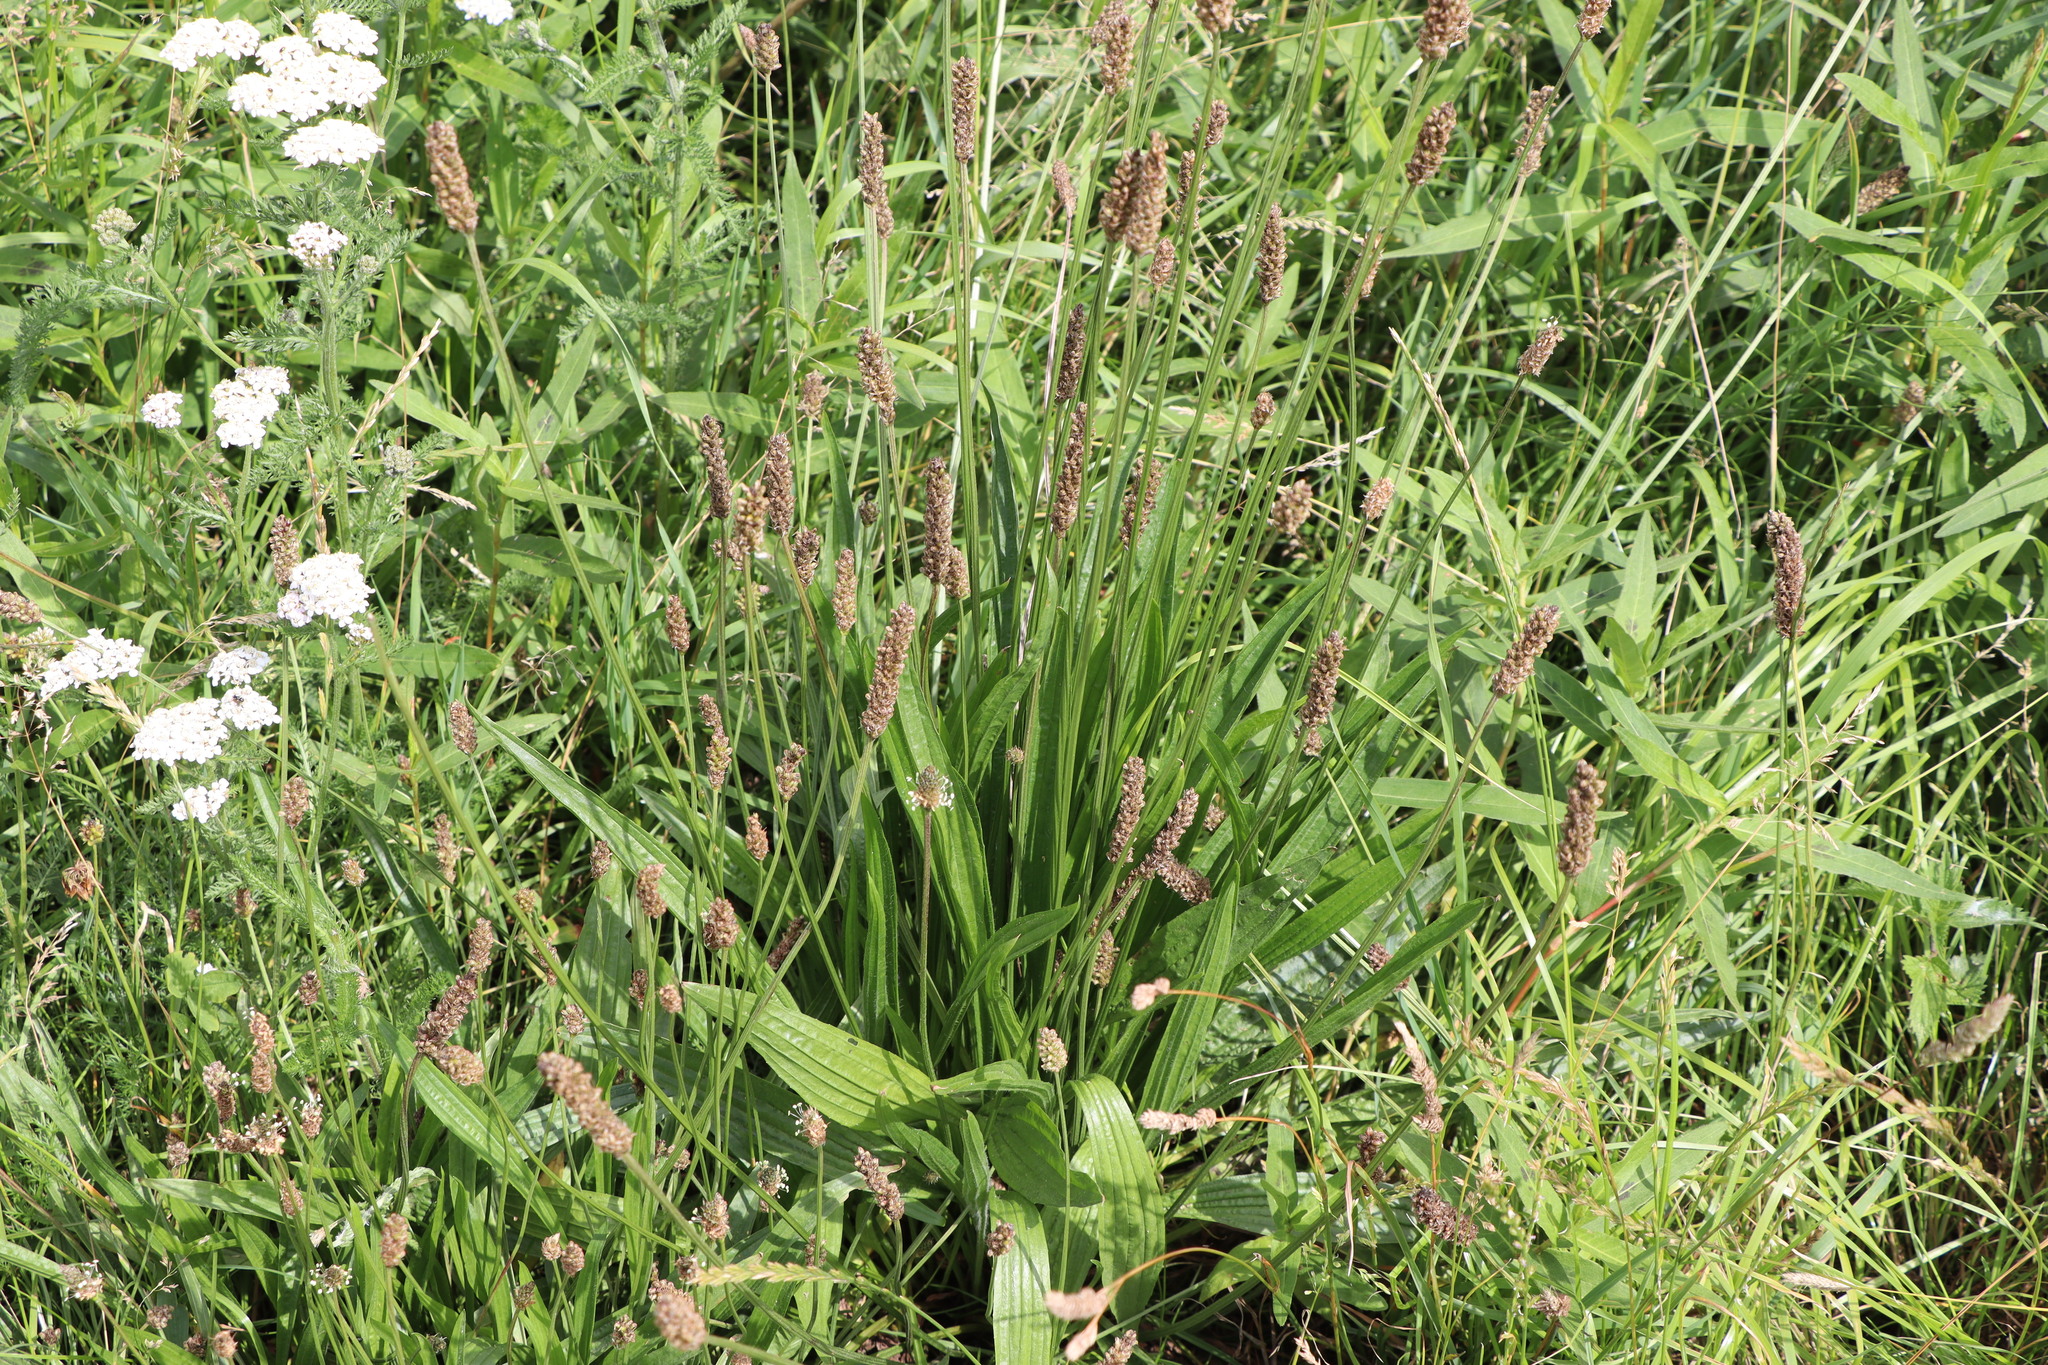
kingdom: Plantae
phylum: Tracheophyta
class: Magnoliopsida
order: Lamiales
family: Plantaginaceae
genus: Plantago
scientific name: Plantago lanceolata
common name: Ribwort plantain
